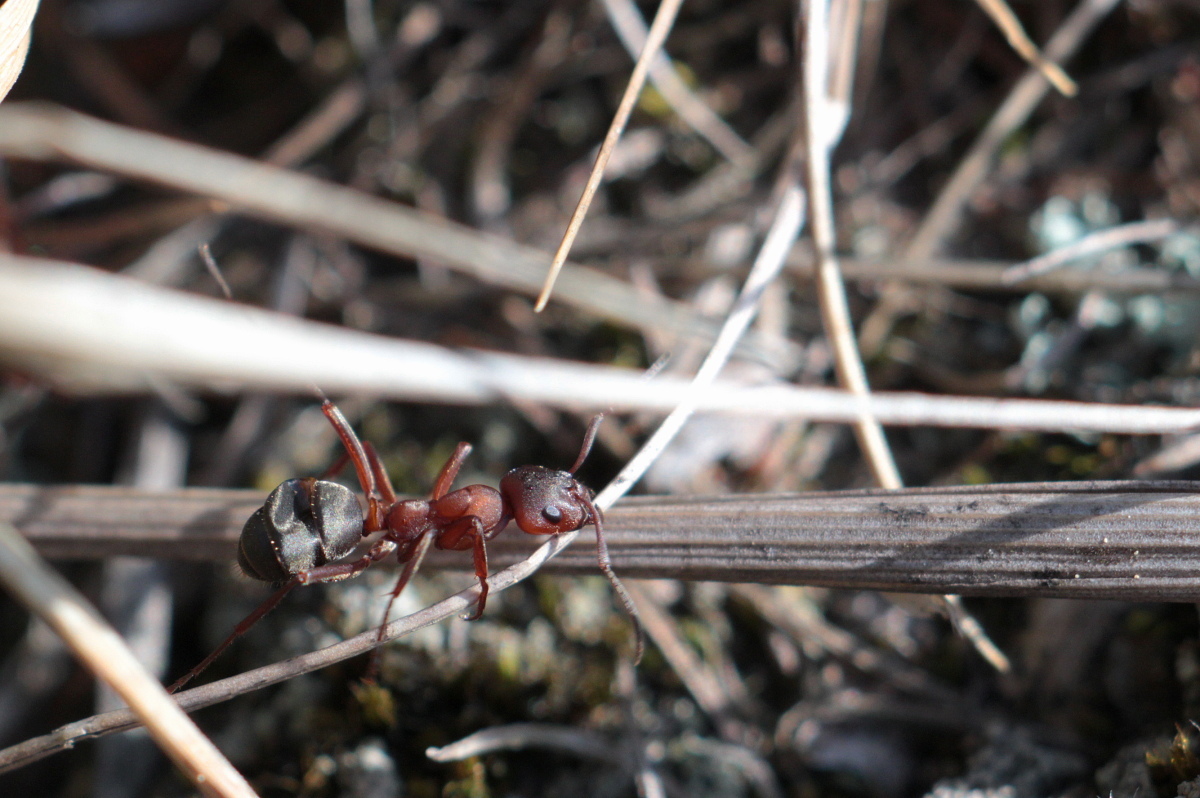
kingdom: Animalia
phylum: Arthropoda
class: Insecta
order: Hymenoptera
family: Formicidae
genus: Formica
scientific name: Formica sanguinea
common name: Blood-red ant
